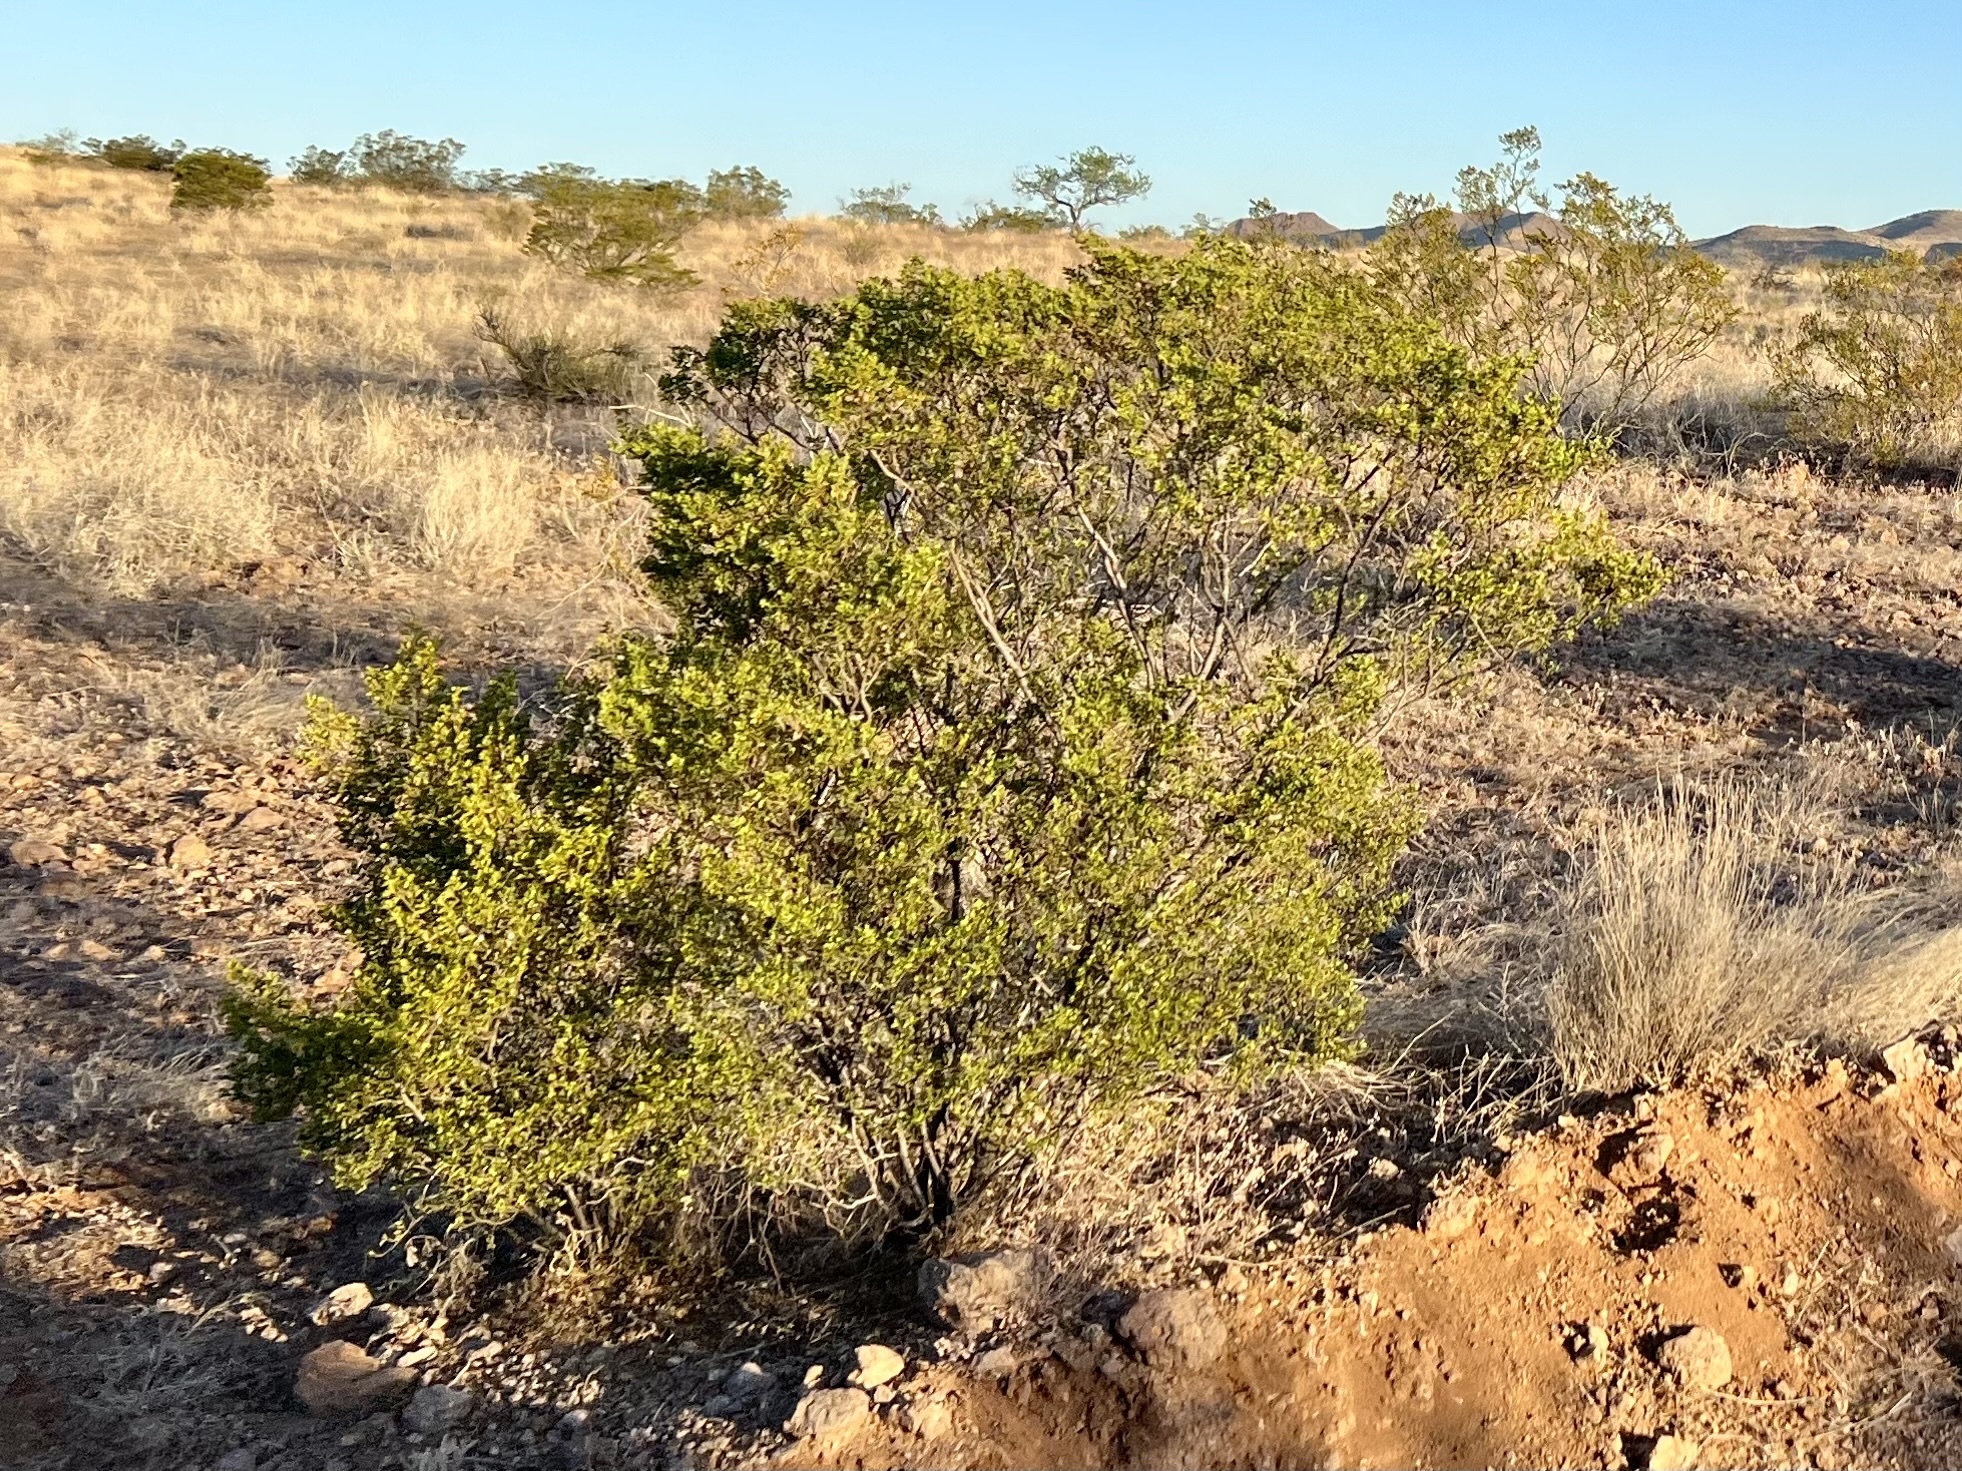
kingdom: Plantae
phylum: Tracheophyta
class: Magnoliopsida
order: Zygophyllales
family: Zygophyllaceae
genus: Larrea
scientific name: Larrea tridentata
